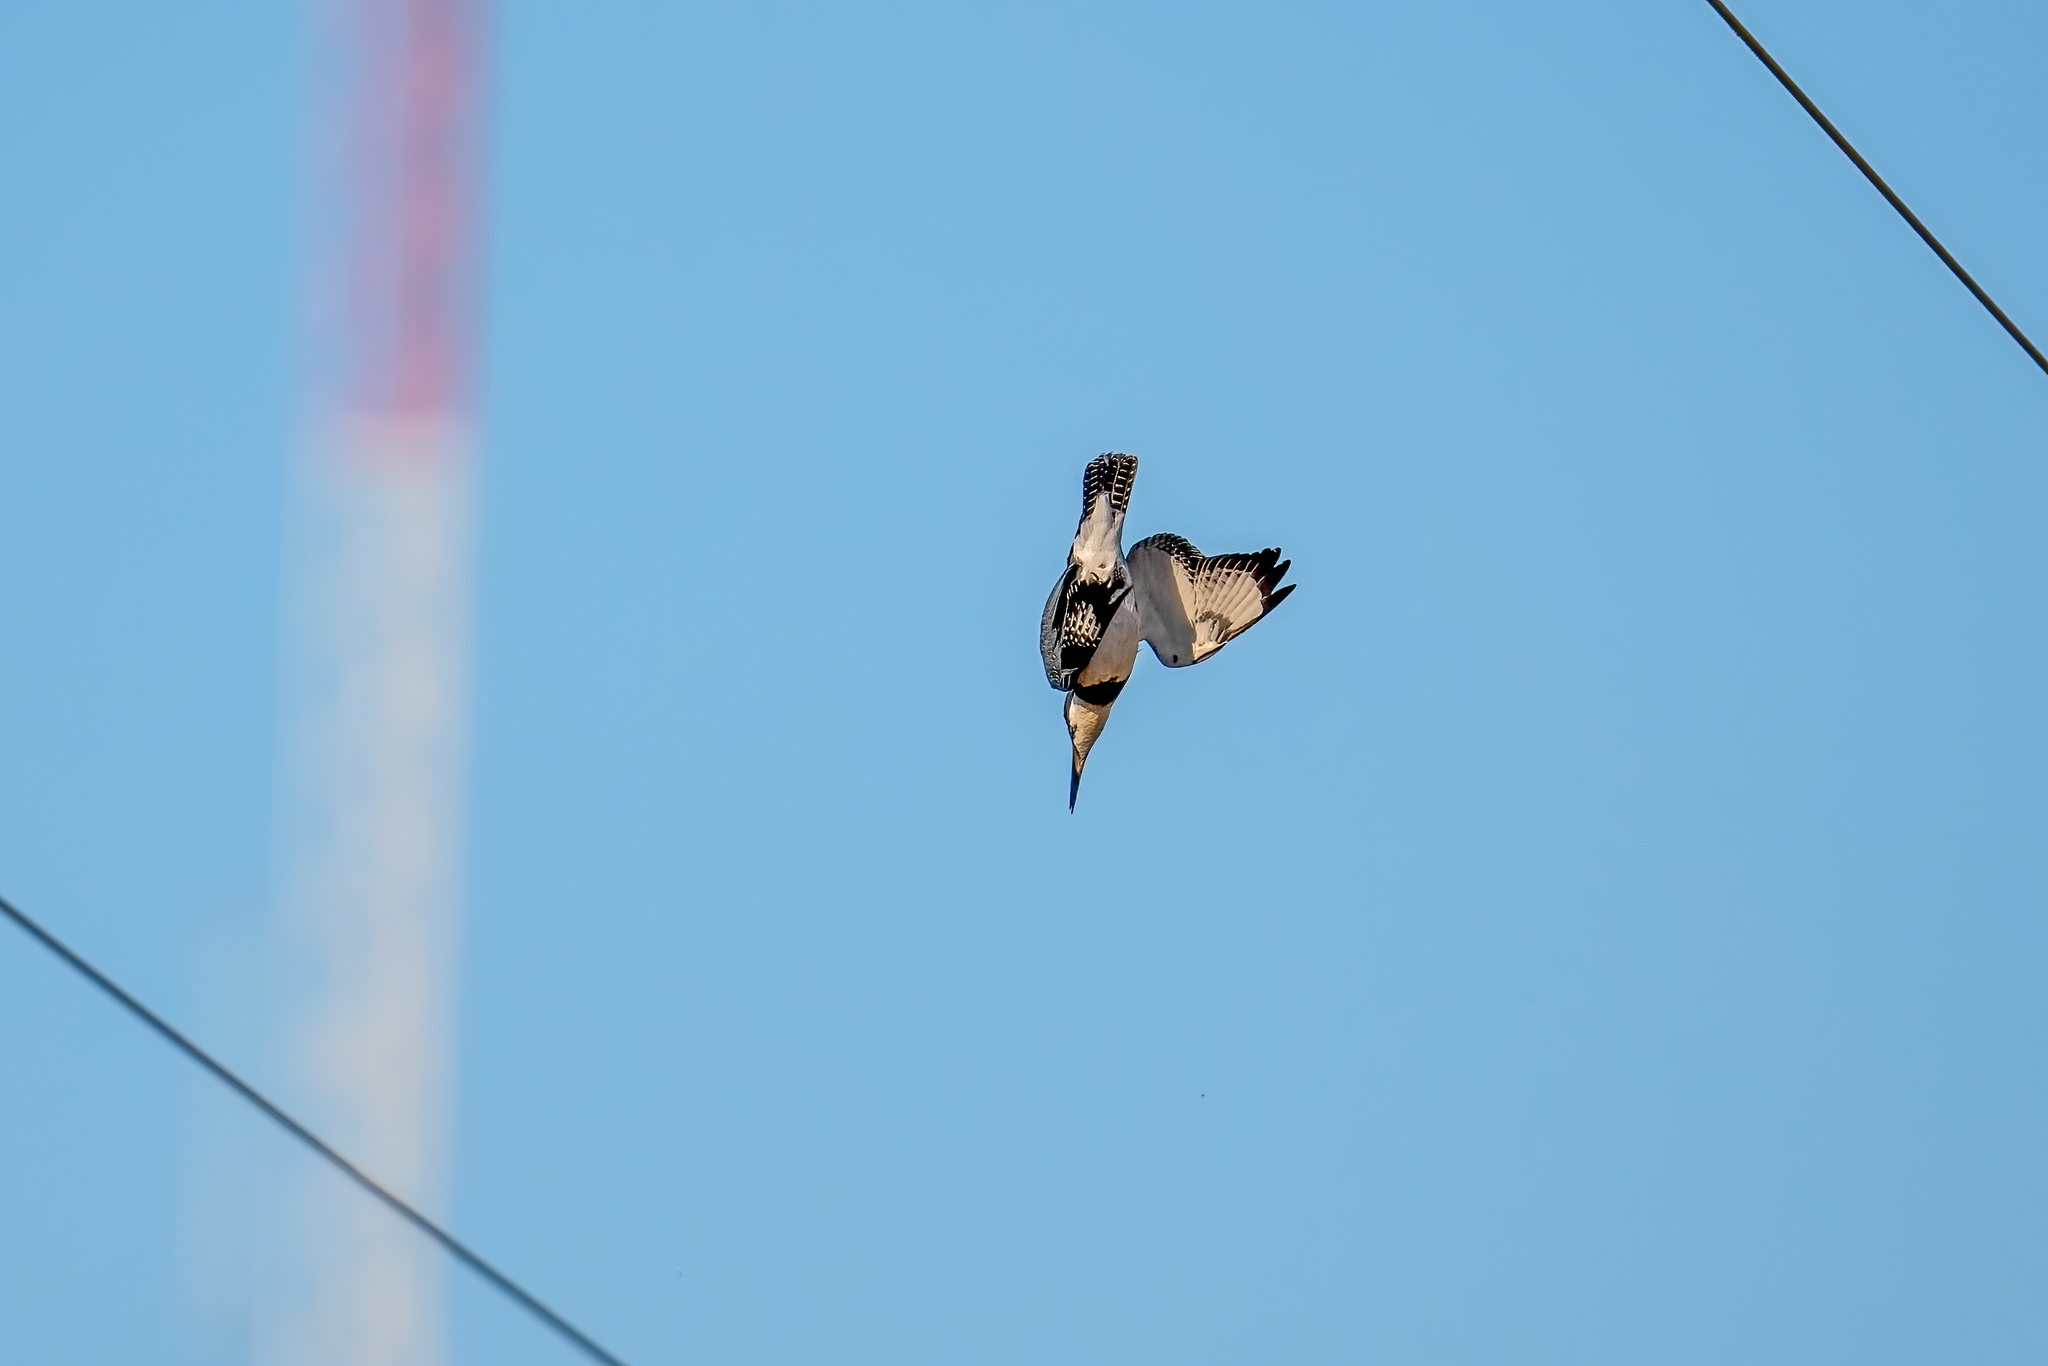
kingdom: Animalia
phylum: Chordata
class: Aves
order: Coraciiformes
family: Alcedinidae
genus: Megaceryle
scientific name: Megaceryle alcyon
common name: Belted kingfisher
